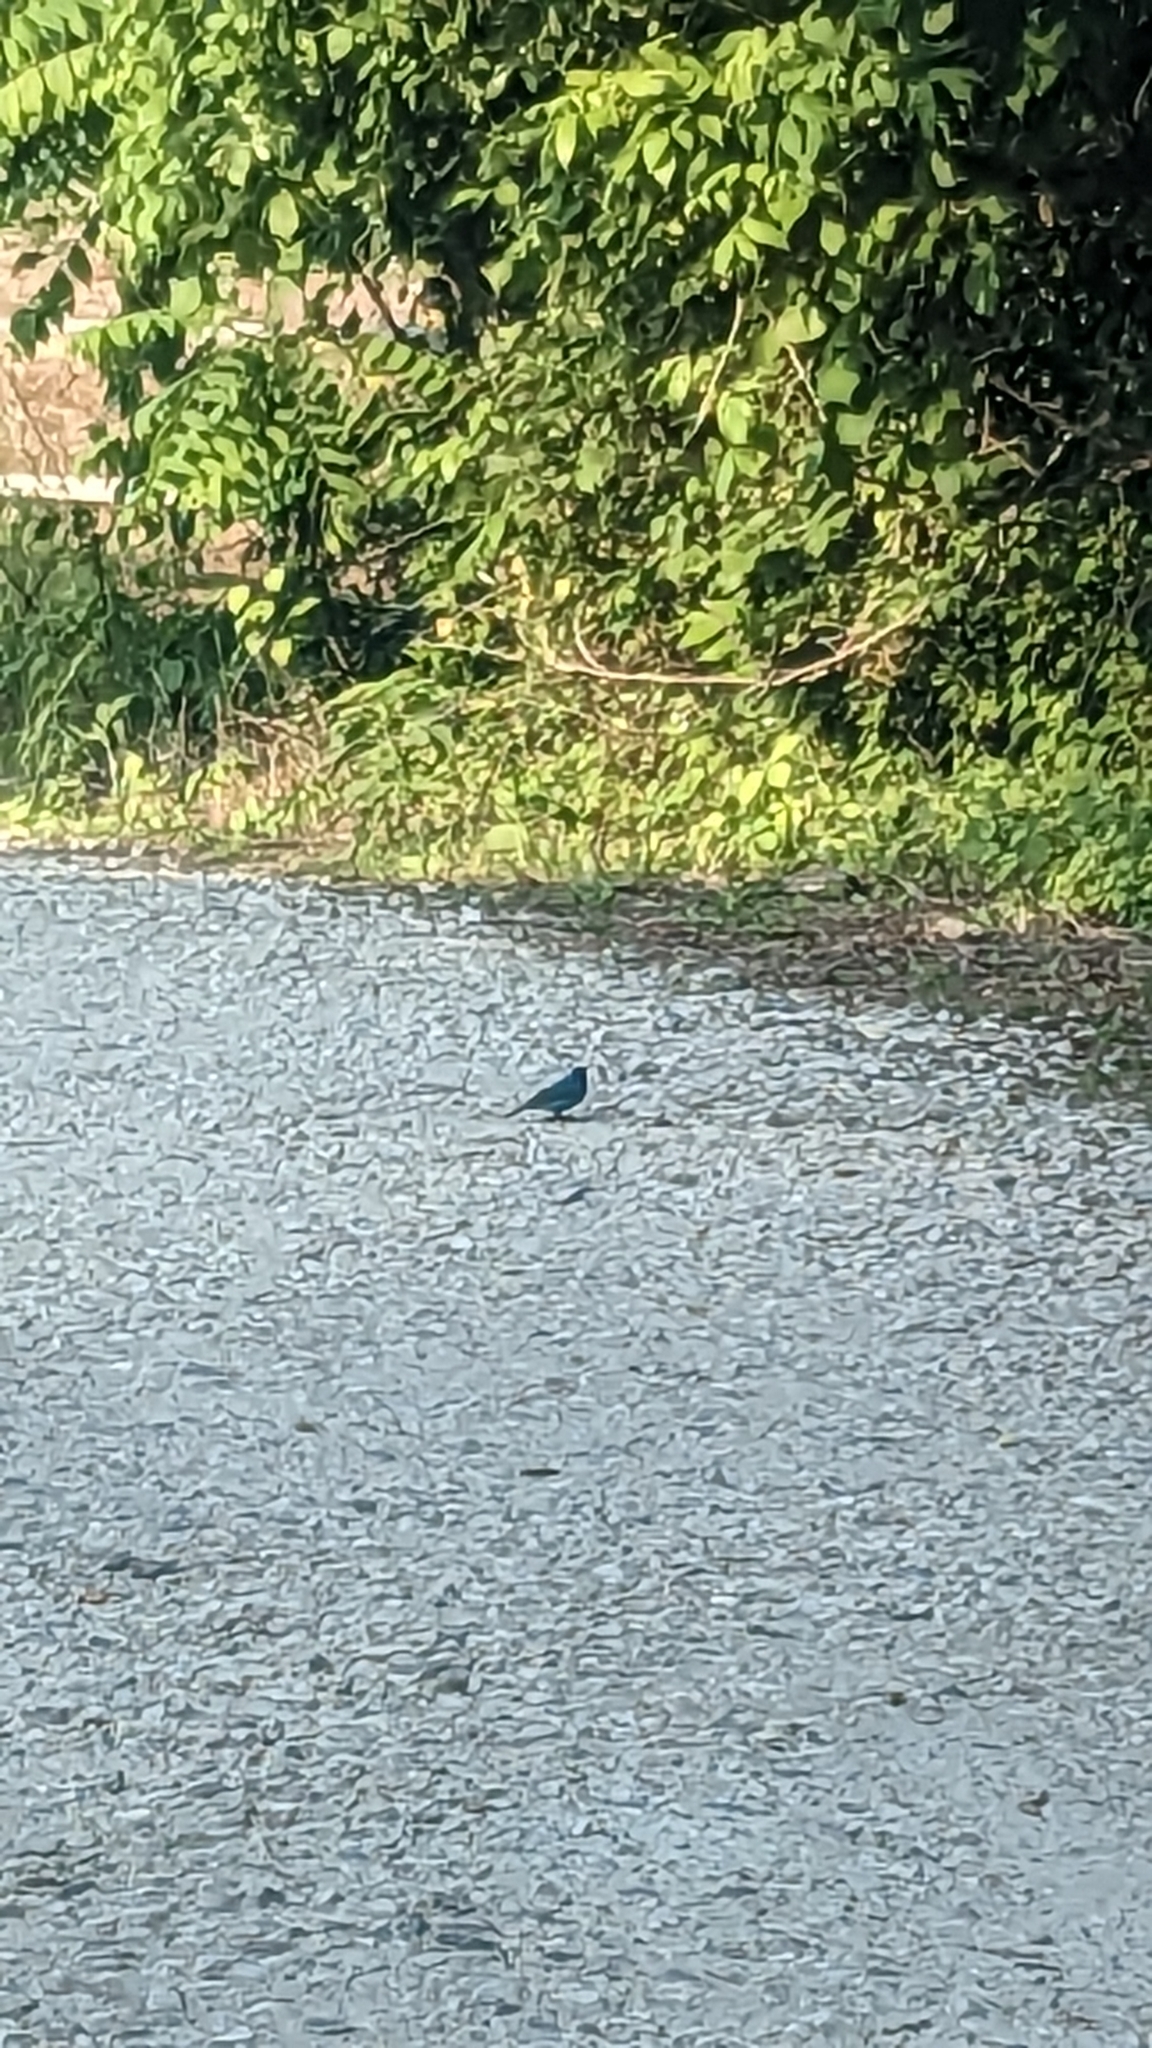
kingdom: Animalia
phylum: Chordata
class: Aves
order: Passeriformes
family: Cardinalidae
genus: Passerina
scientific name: Passerina cyanea
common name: Indigo bunting
